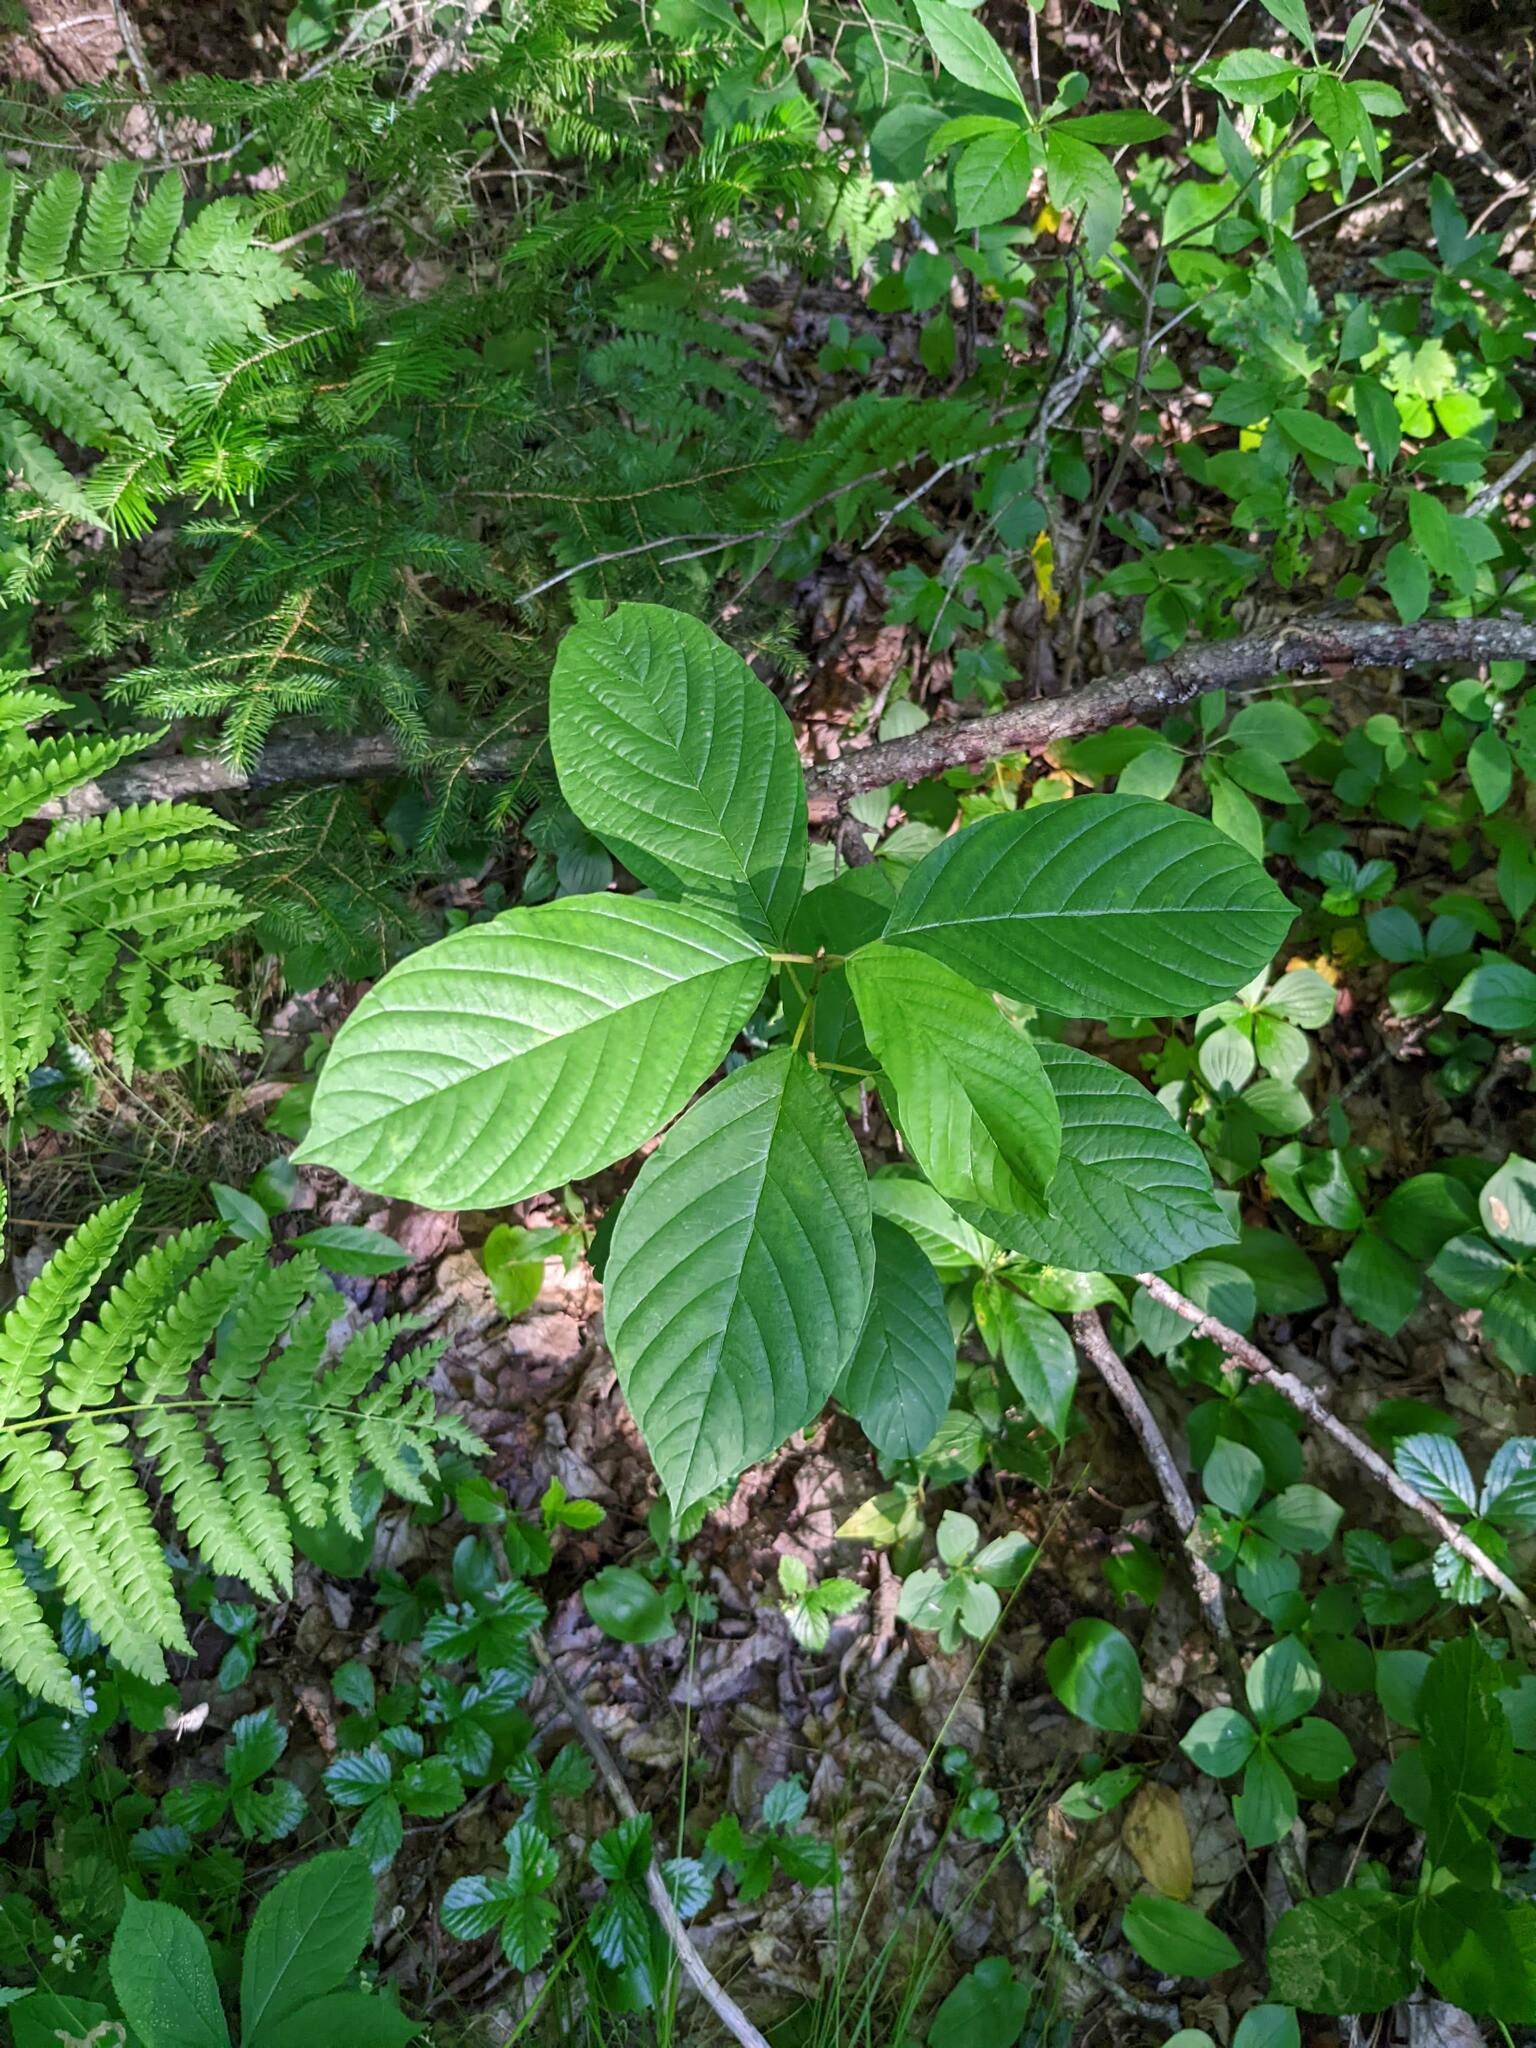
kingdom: Plantae
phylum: Tracheophyta
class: Magnoliopsida
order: Rosales
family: Rhamnaceae
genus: Frangula
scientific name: Frangula alnus
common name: Alder buckthorn
